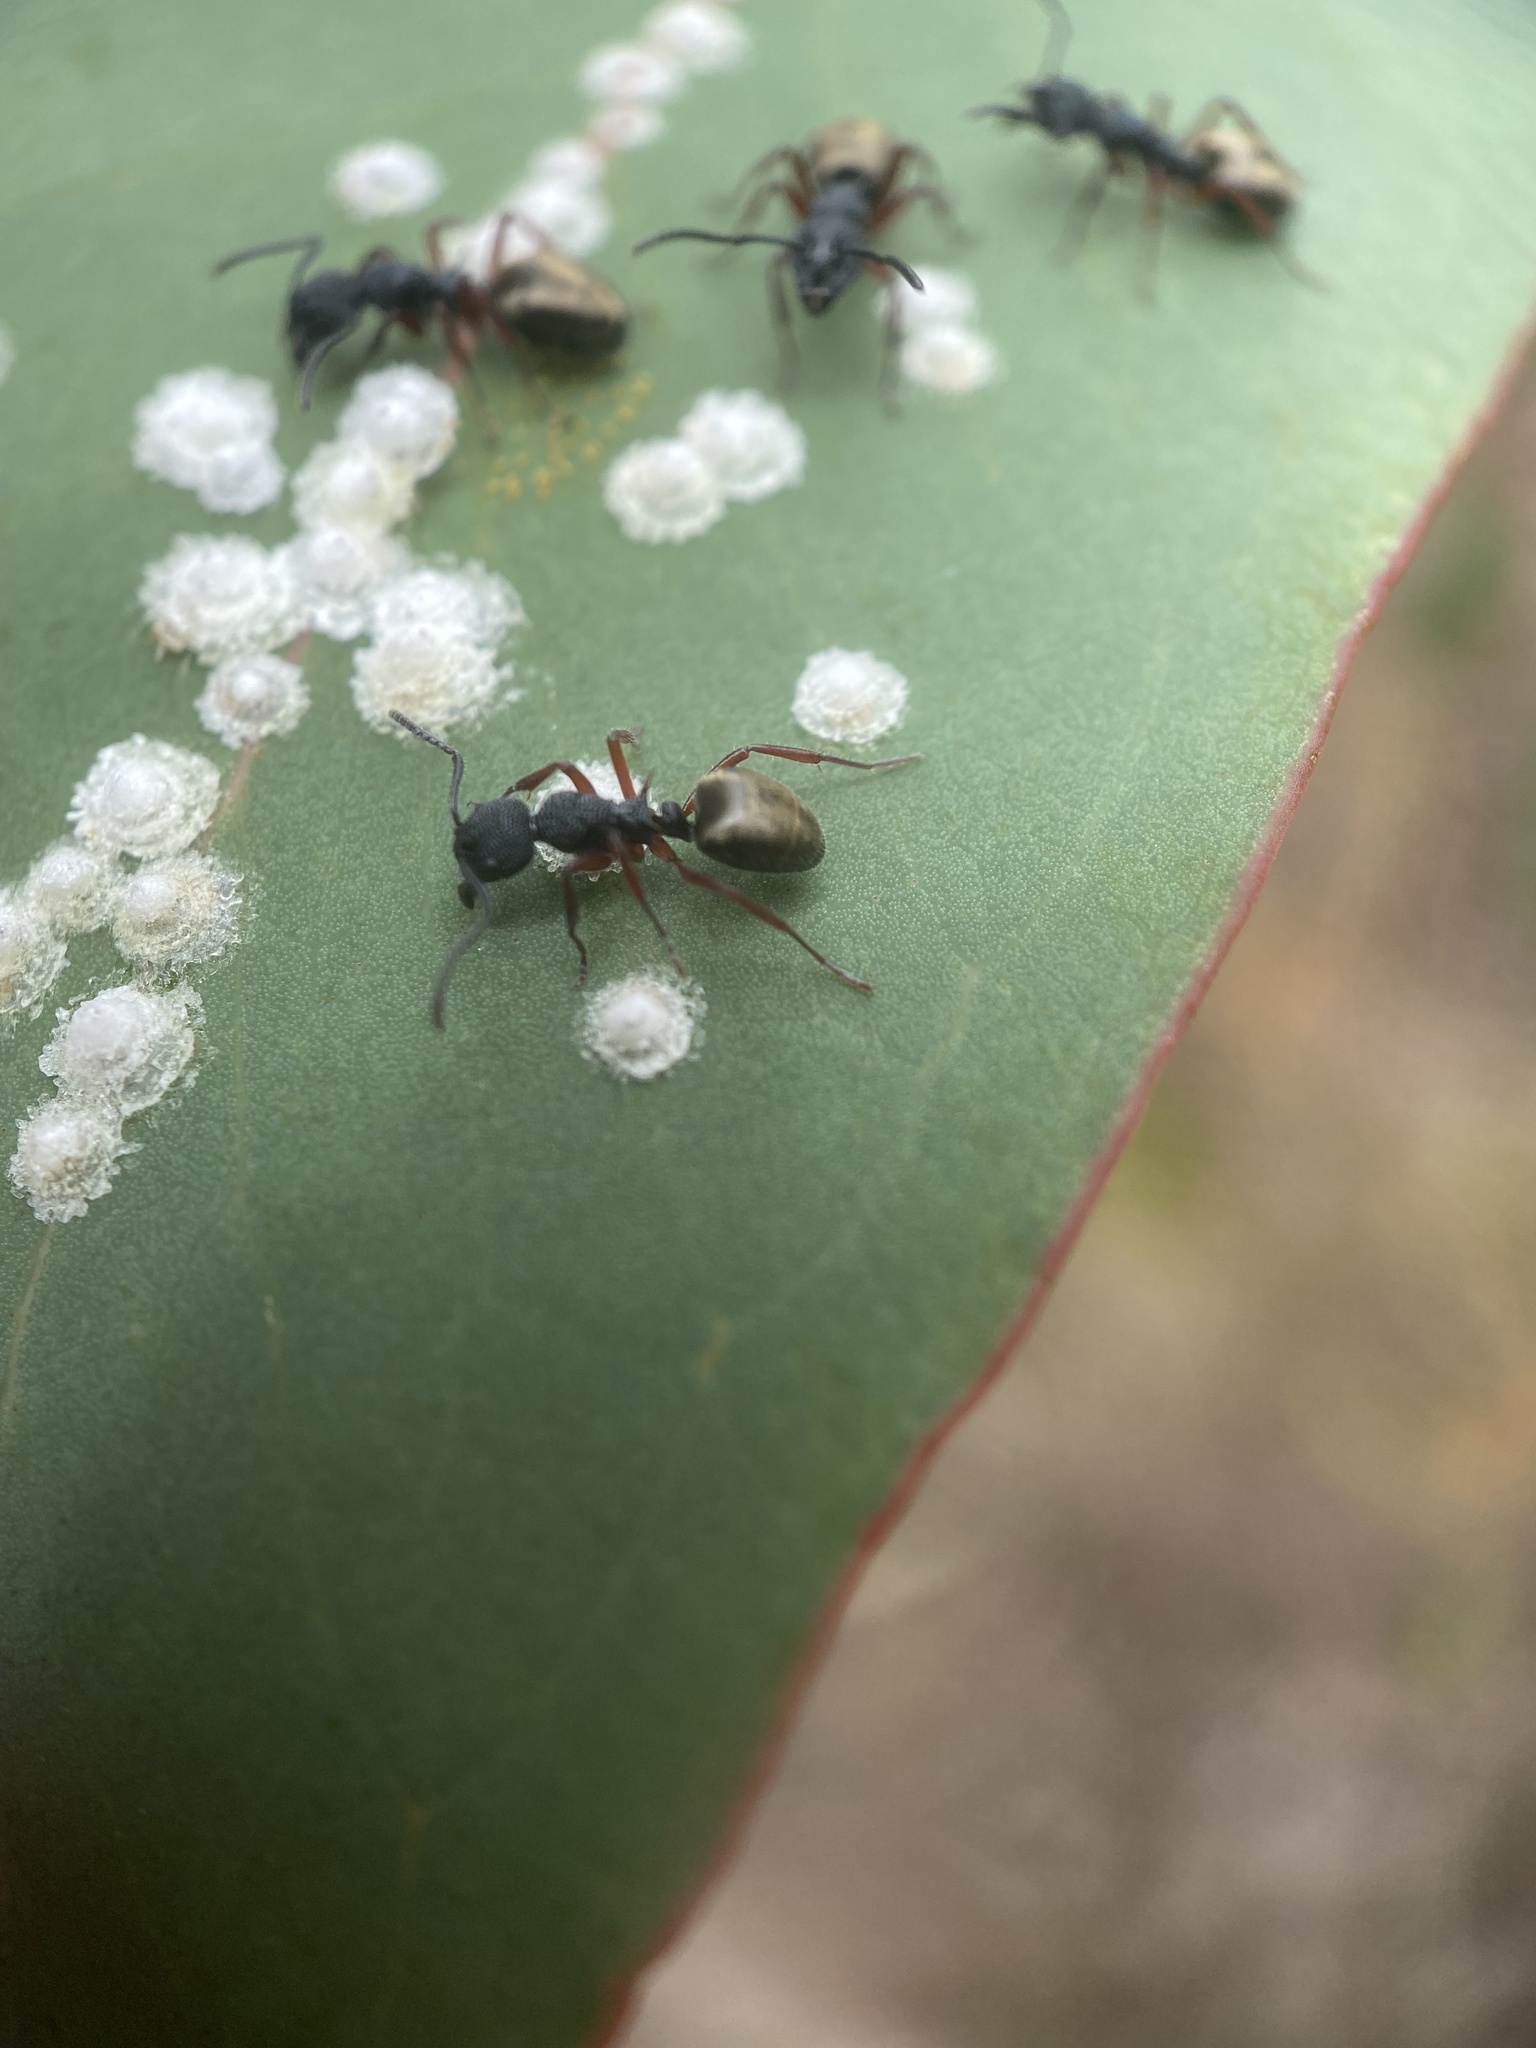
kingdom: Animalia
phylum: Arthropoda
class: Insecta
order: Hymenoptera
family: Formicidae
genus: Dolichoderus
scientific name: Dolichoderus scabridus
